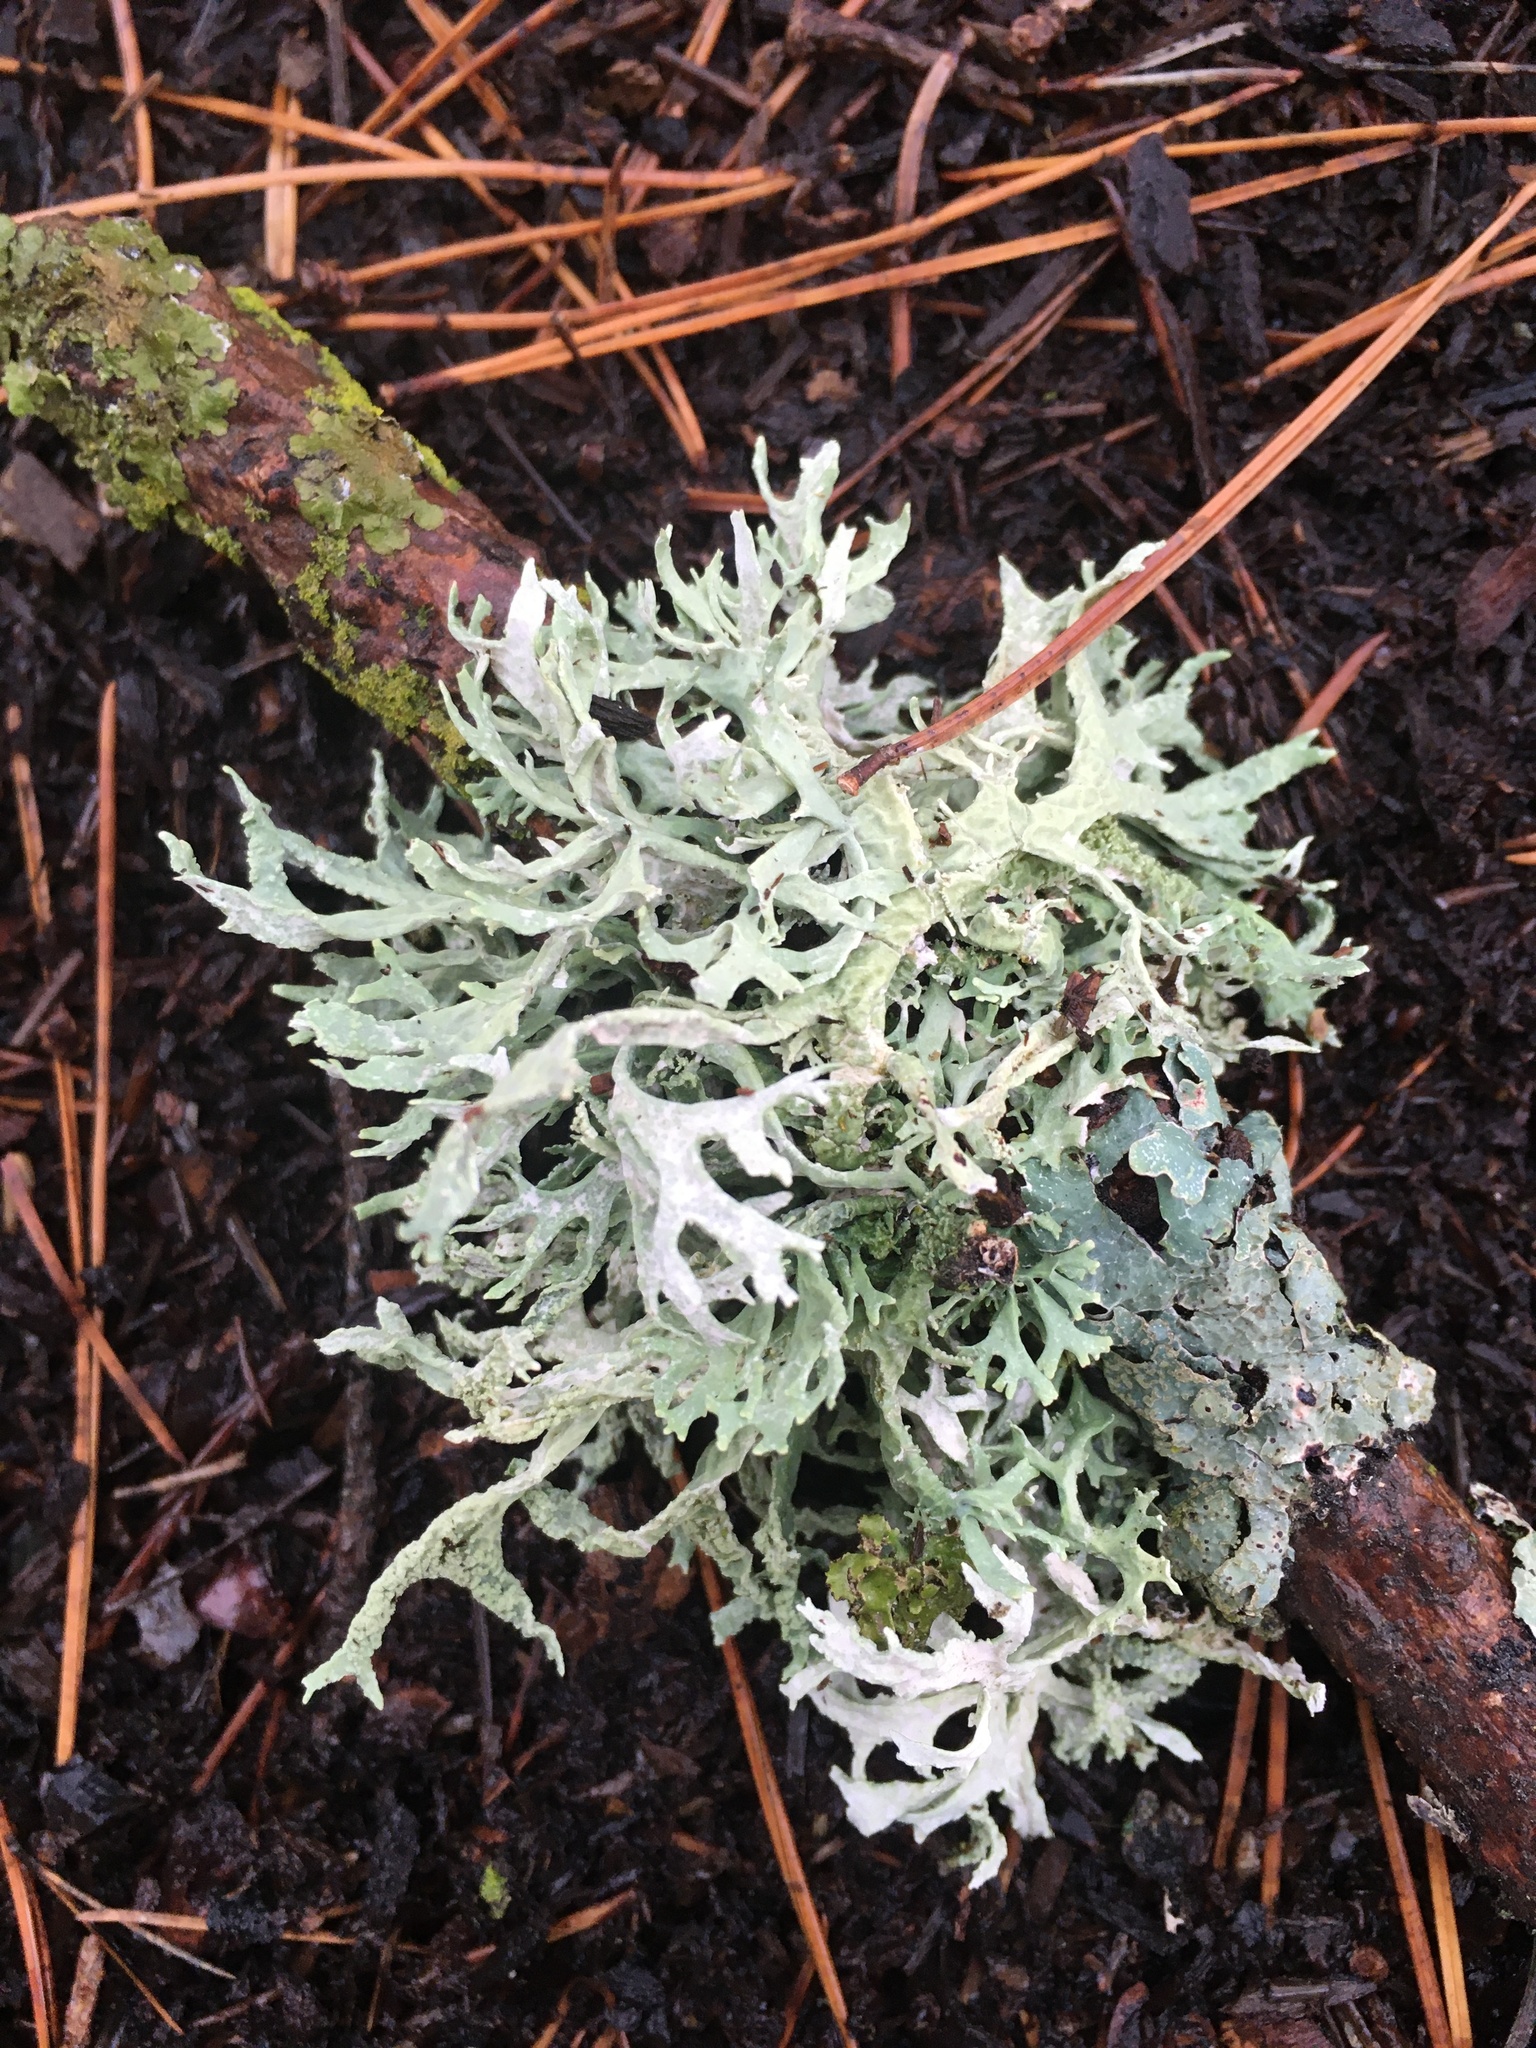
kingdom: Fungi
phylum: Ascomycota
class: Lecanoromycetes
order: Lecanorales
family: Parmeliaceae
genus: Evernia
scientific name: Evernia prunastri
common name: Oak moss
